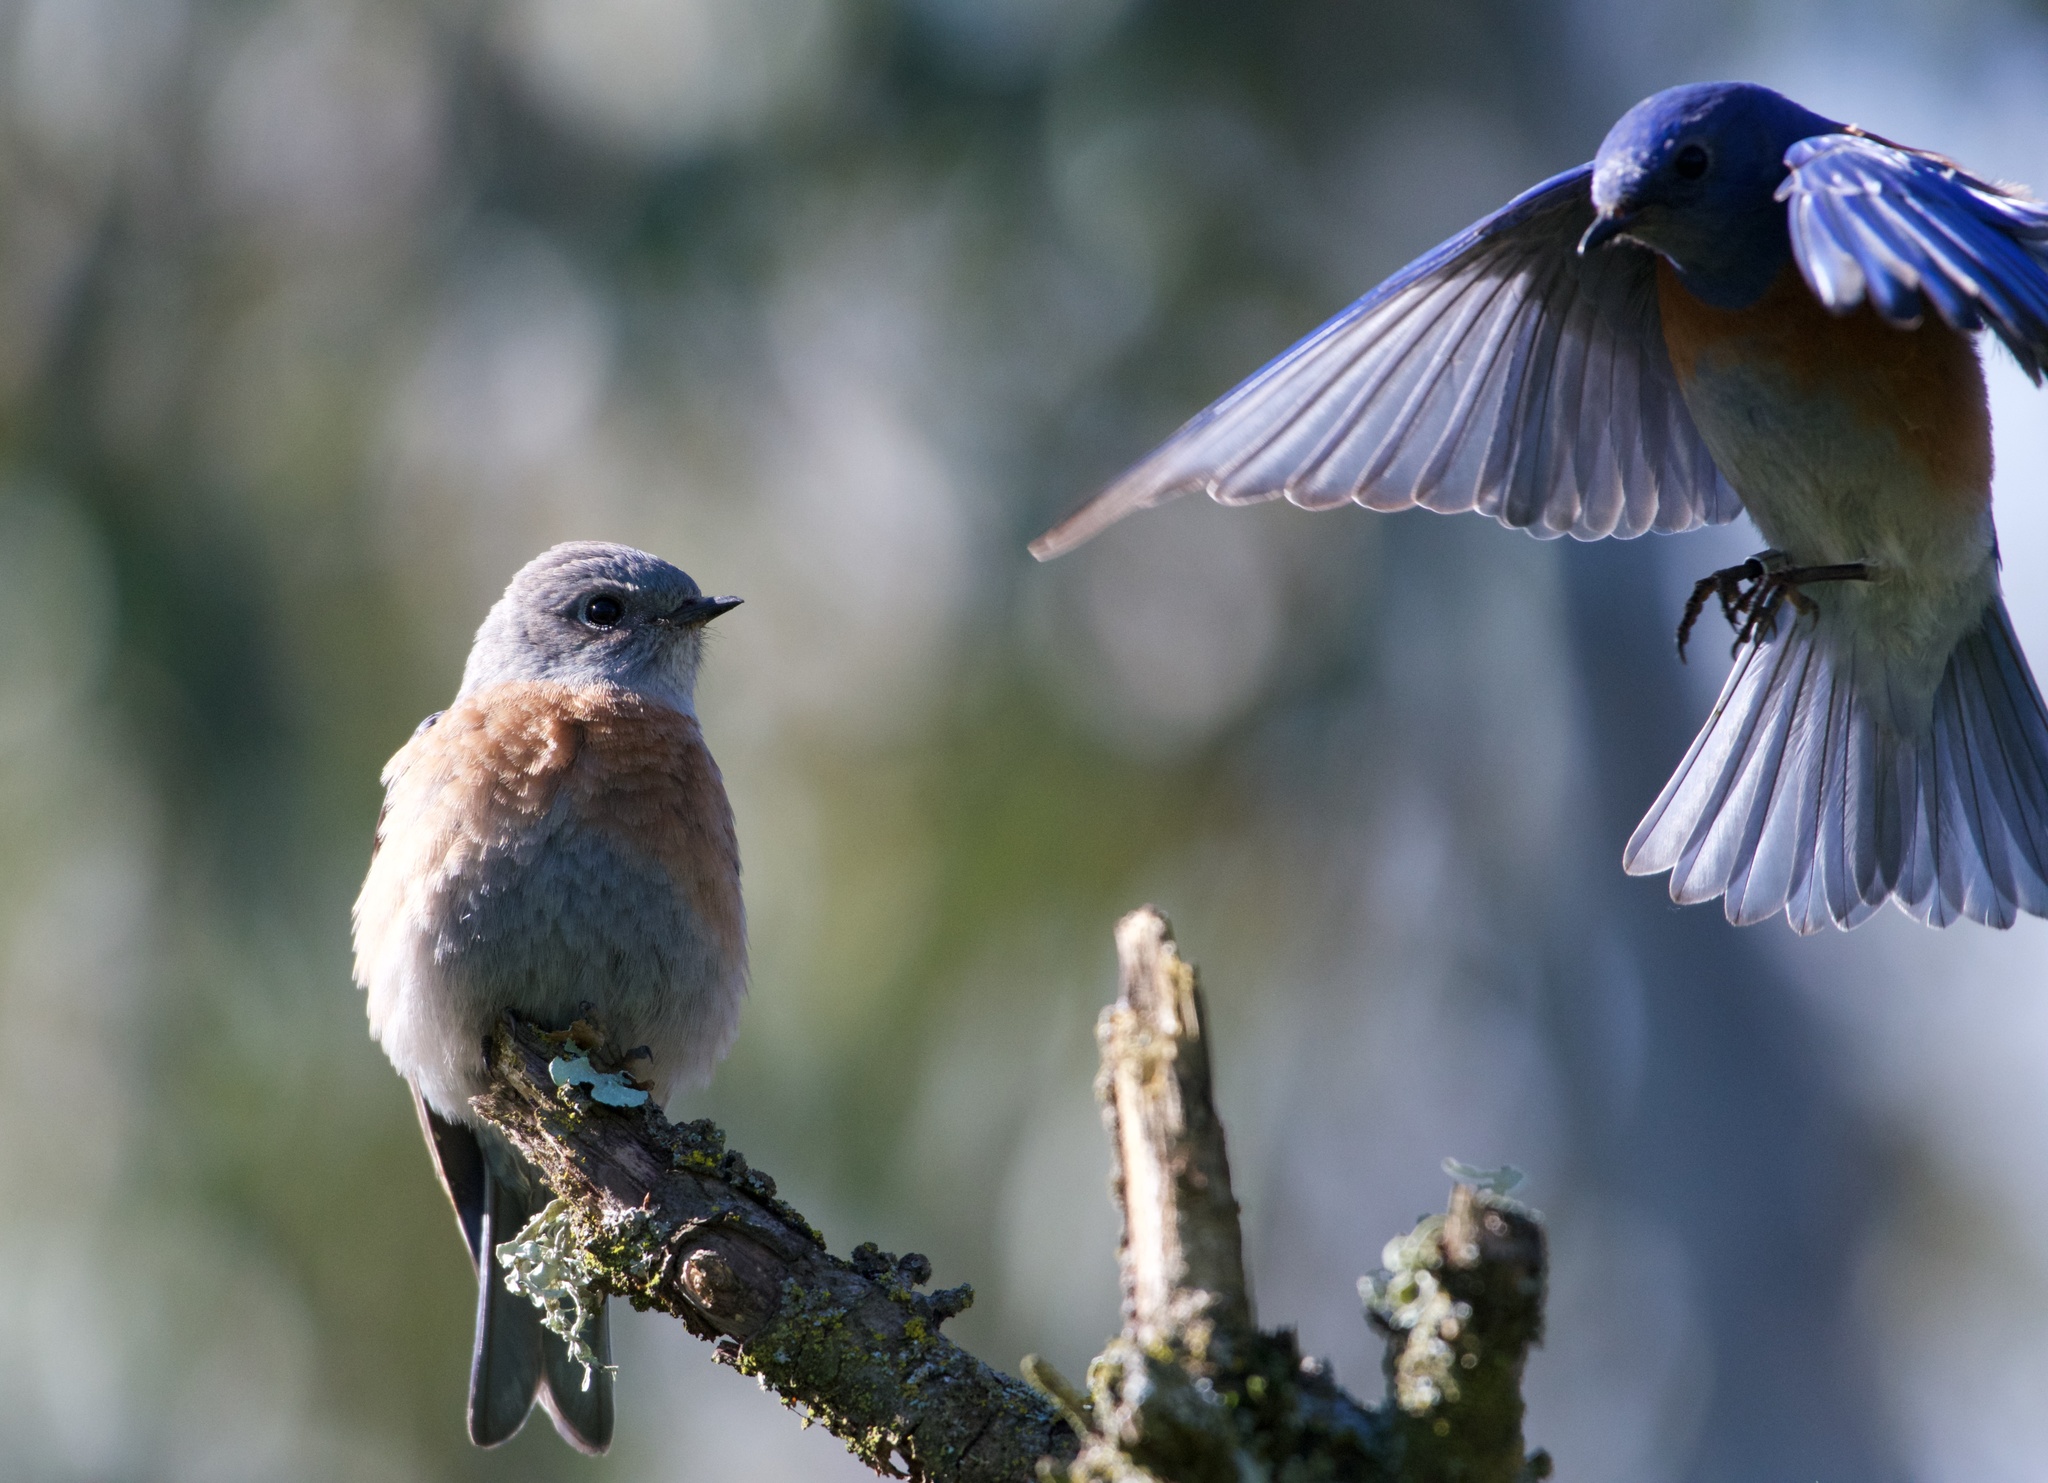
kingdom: Animalia
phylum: Chordata
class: Aves
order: Passeriformes
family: Turdidae
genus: Sialia
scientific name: Sialia mexicana
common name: Western bluebird
